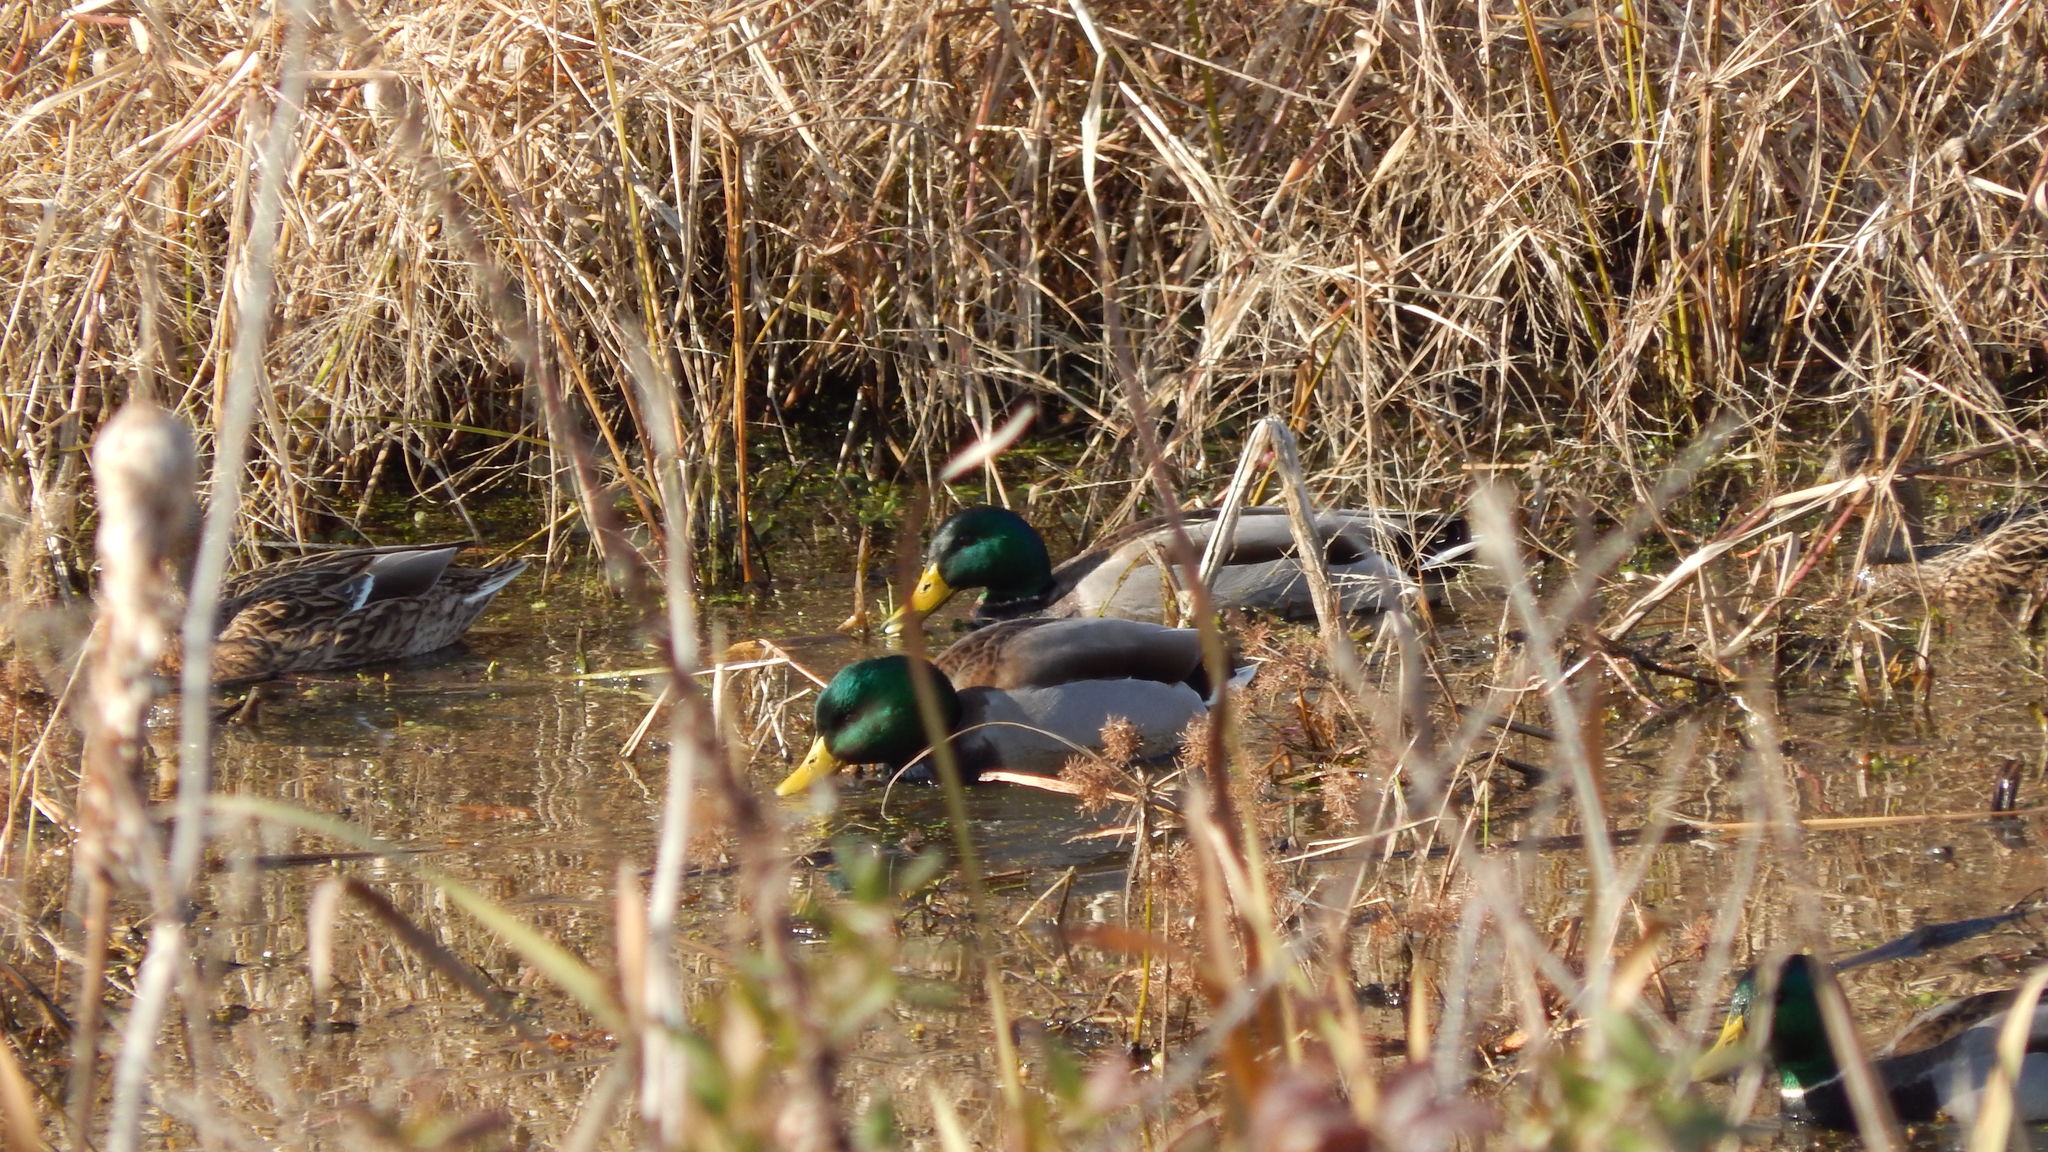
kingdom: Animalia
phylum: Chordata
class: Aves
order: Anseriformes
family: Anatidae
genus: Anas
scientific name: Anas platyrhynchos
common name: Mallard
